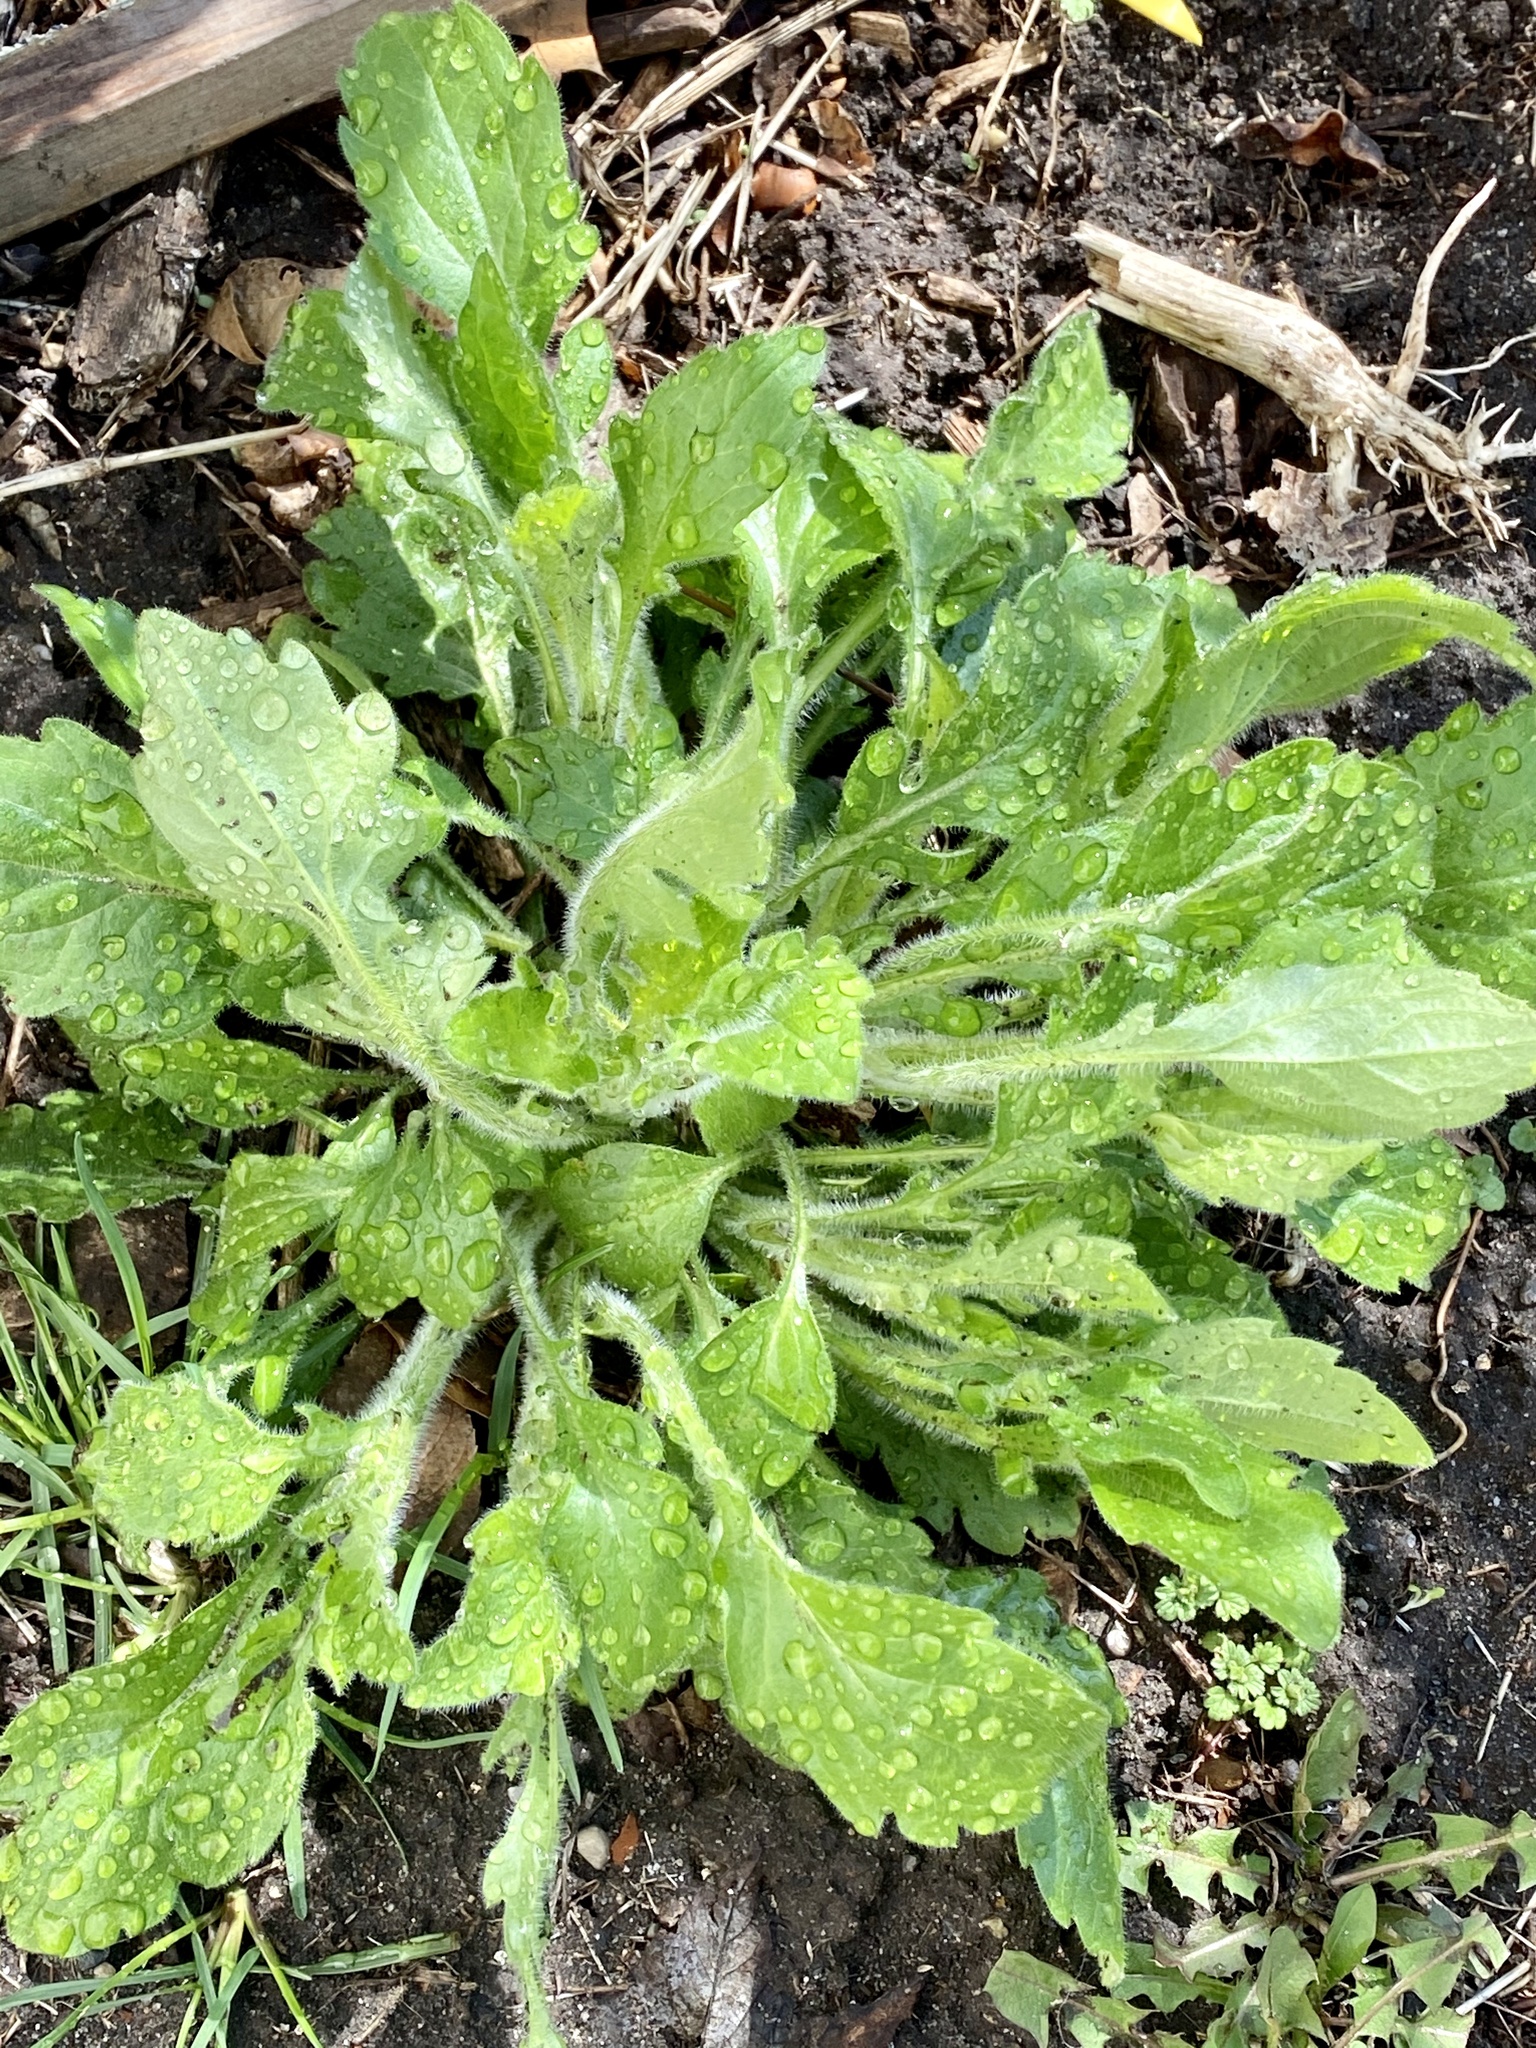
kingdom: Plantae
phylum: Tracheophyta
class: Magnoliopsida
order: Asterales
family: Asteraceae
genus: Erigeron
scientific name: Erigeron canadensis
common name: Canadian fleabane
